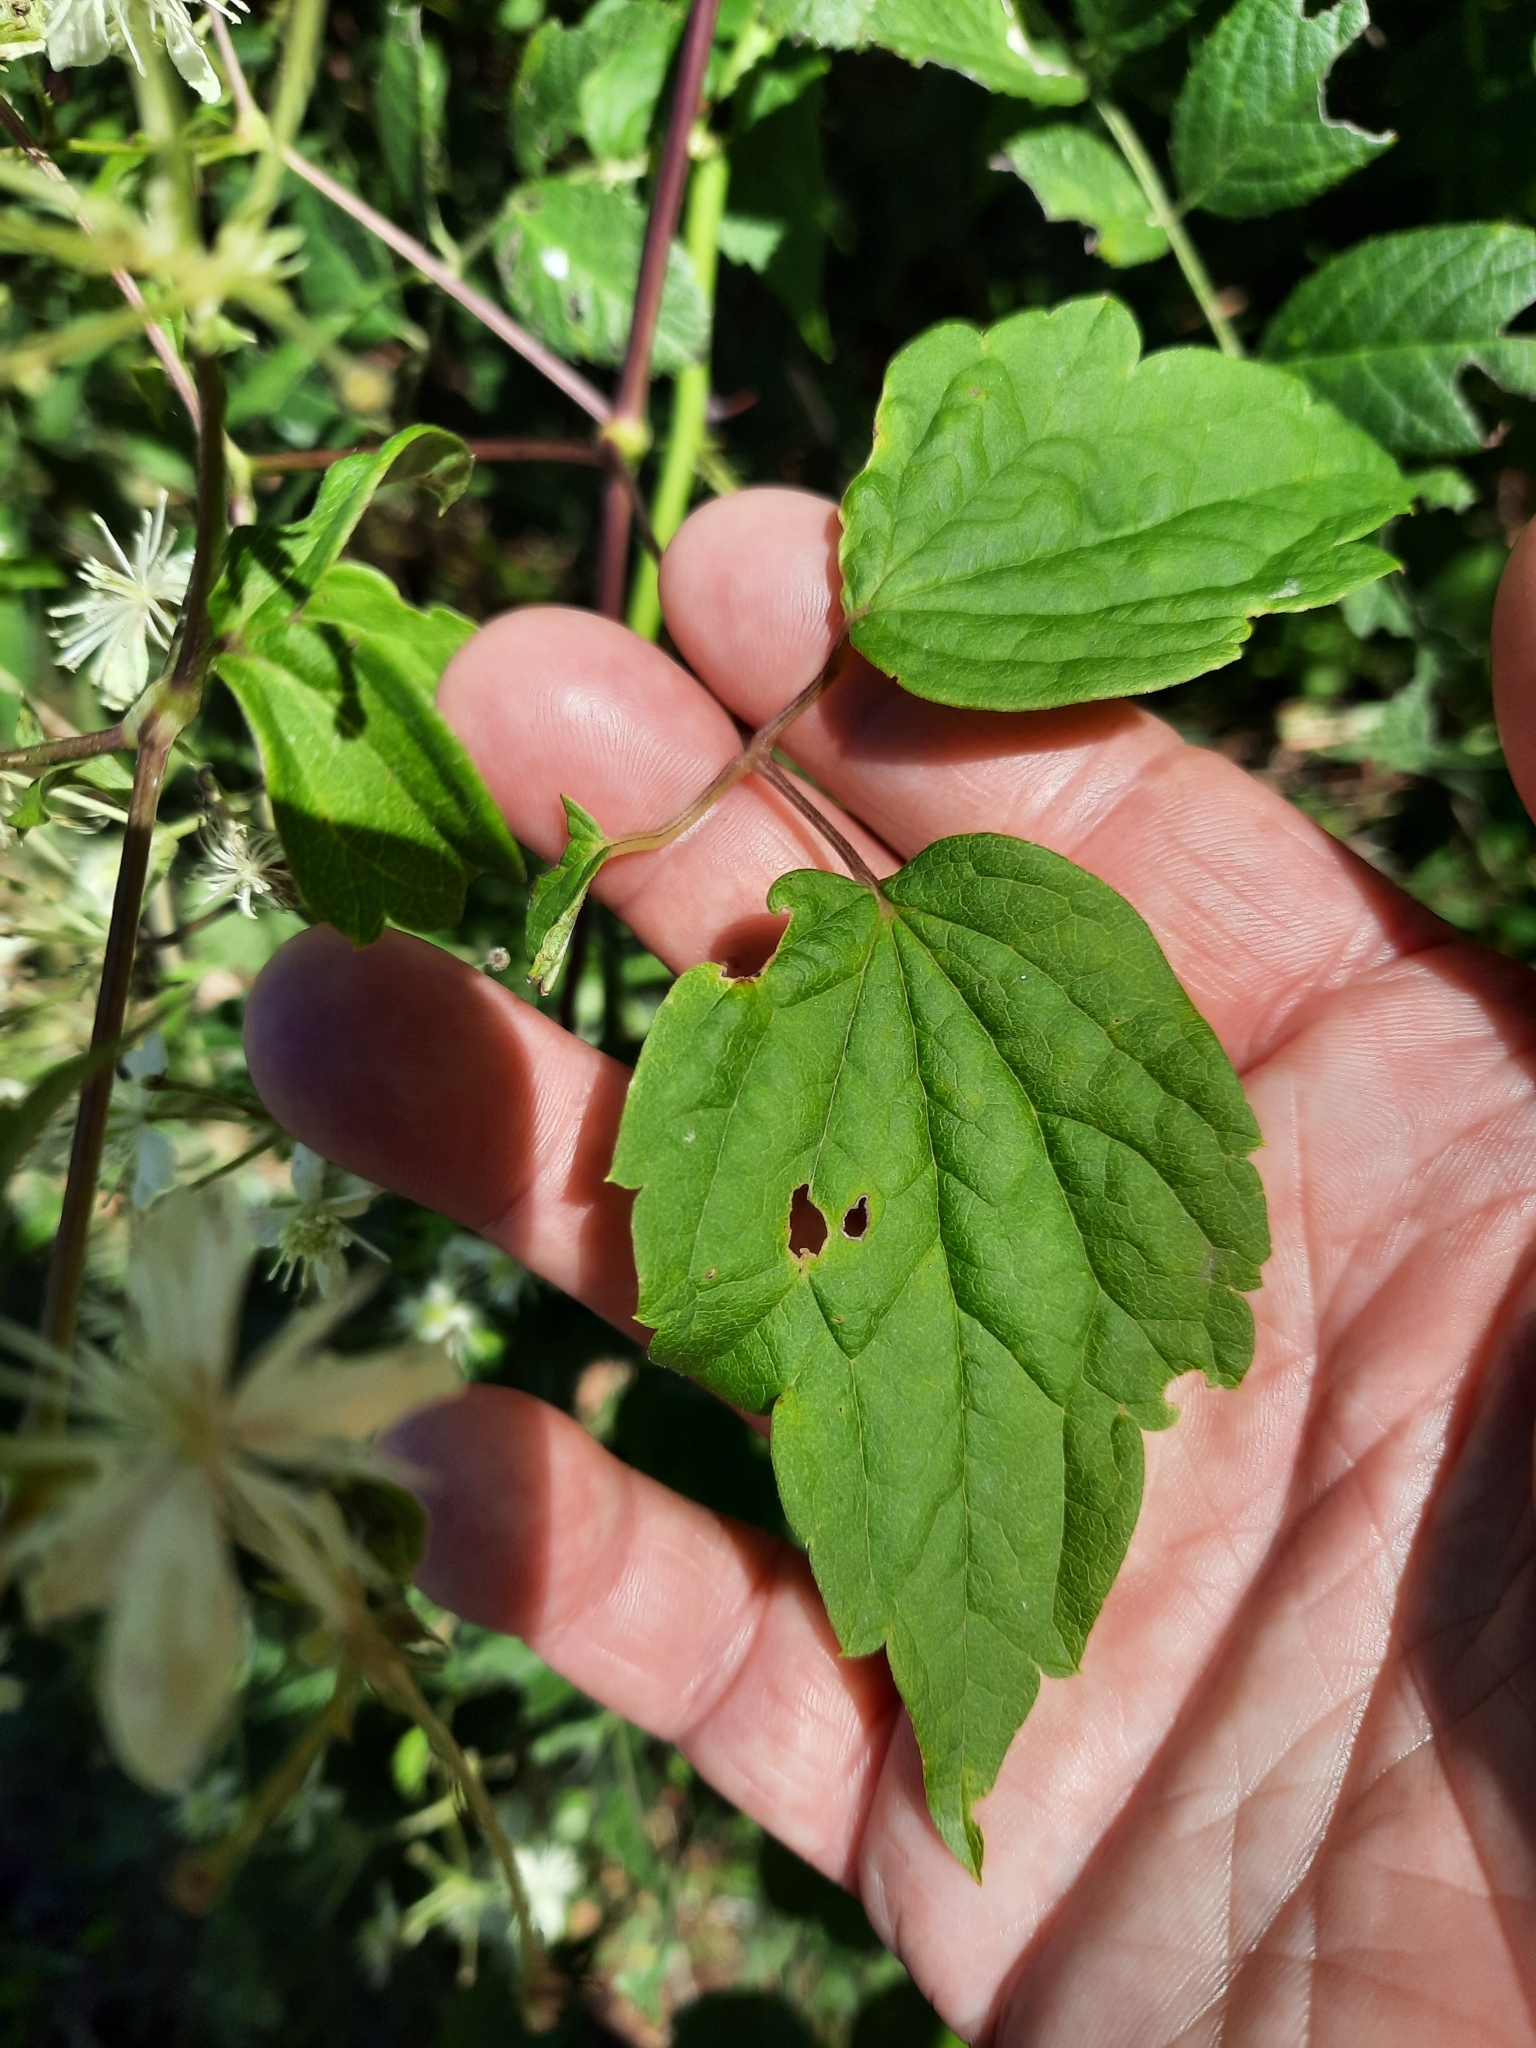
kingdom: Plantae
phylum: Tracheophyta
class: Magnoliopsida
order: Ranunculales
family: Ranunculaceae
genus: Clematis
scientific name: Clematis virginiana
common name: Virgin's-bower
